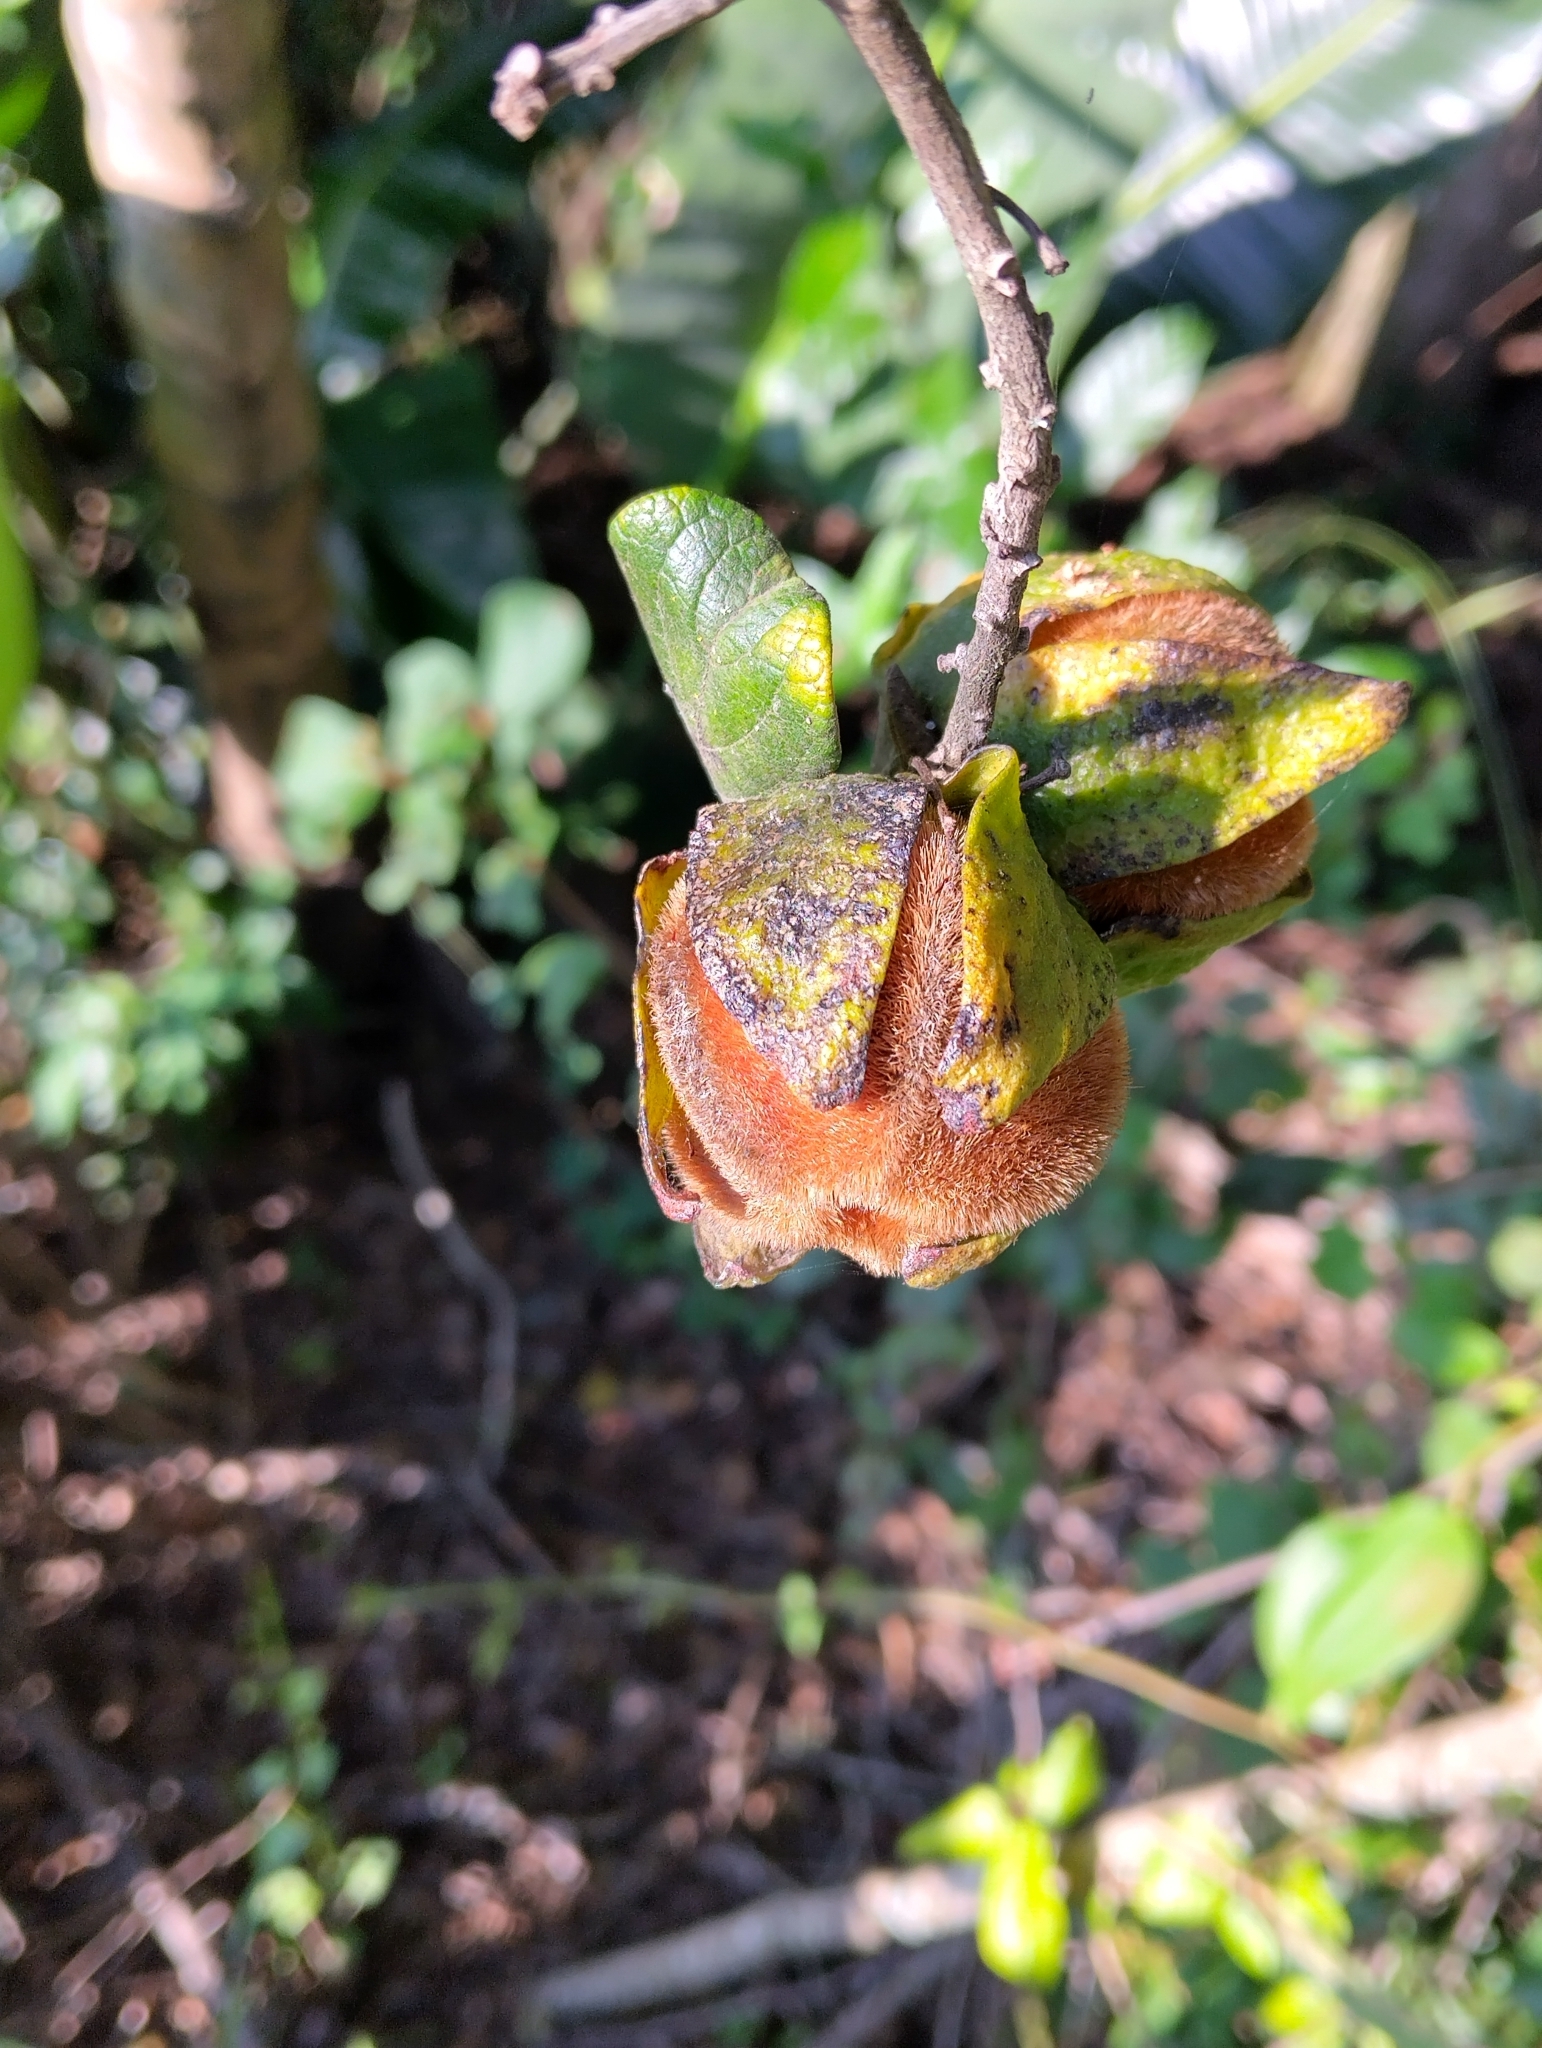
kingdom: Plantae
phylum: Tracheophyta
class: Magnoliopsida
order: Ericales
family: Ebenaceae
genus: Diospyros
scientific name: Diospyros villosa
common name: Hairy star-apple
